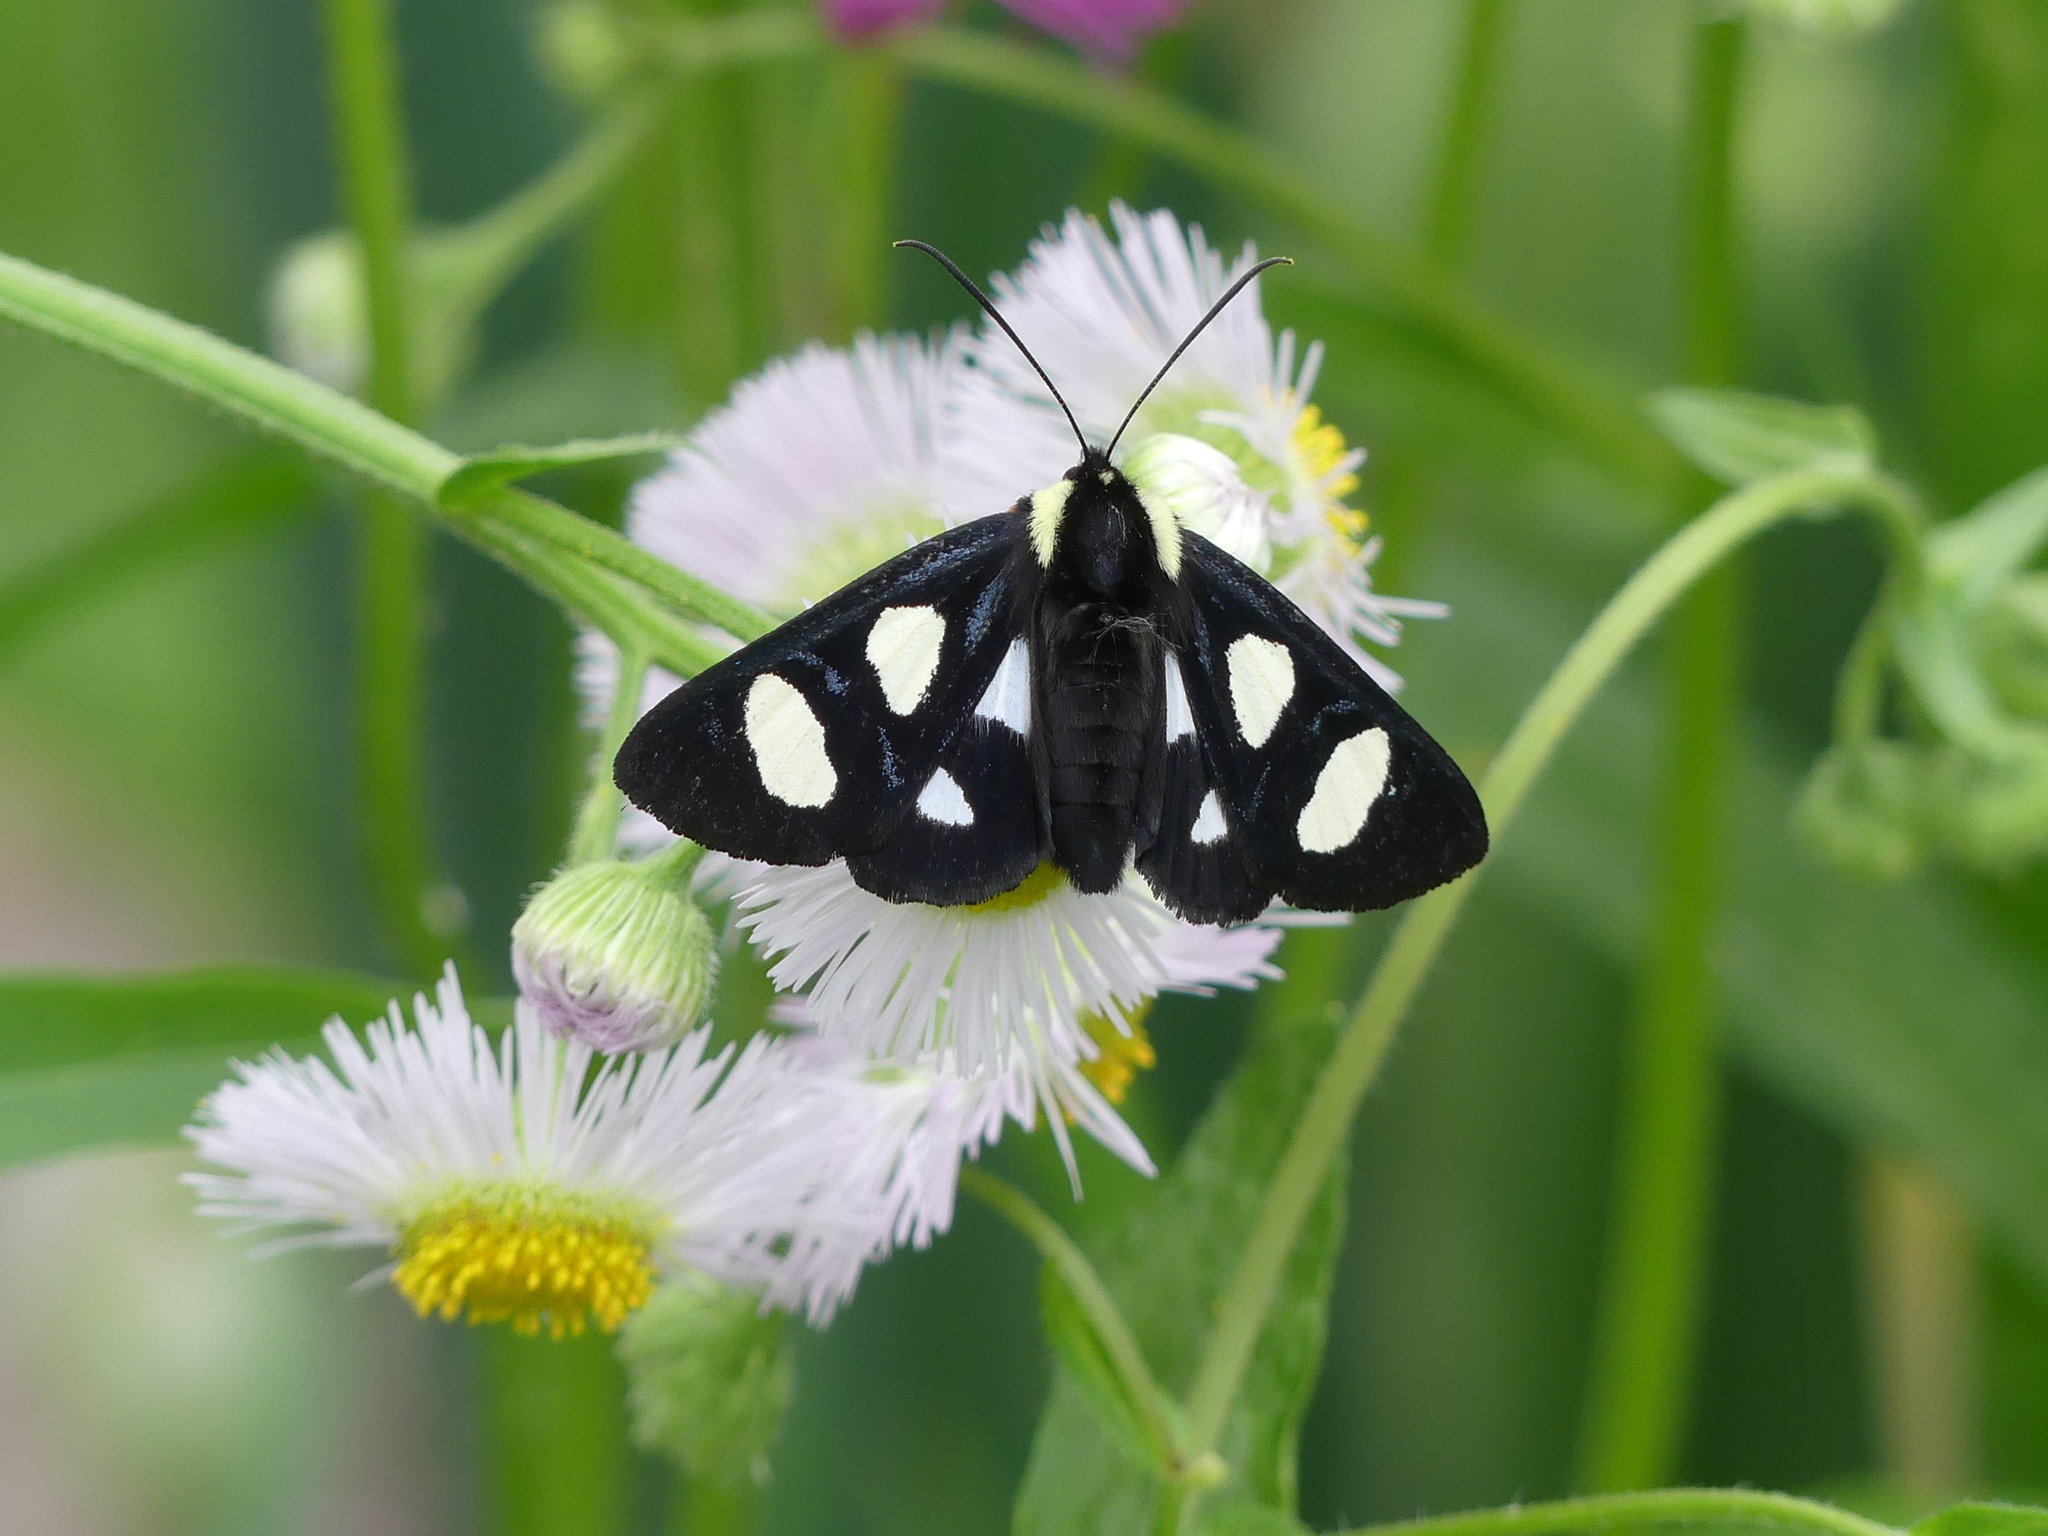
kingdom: Animalia
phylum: Arthropoda
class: Insecta
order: Lepidoptera
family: Noctuidae
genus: Alypia
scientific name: Alypia octomaculata
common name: Eight-spotted forester
